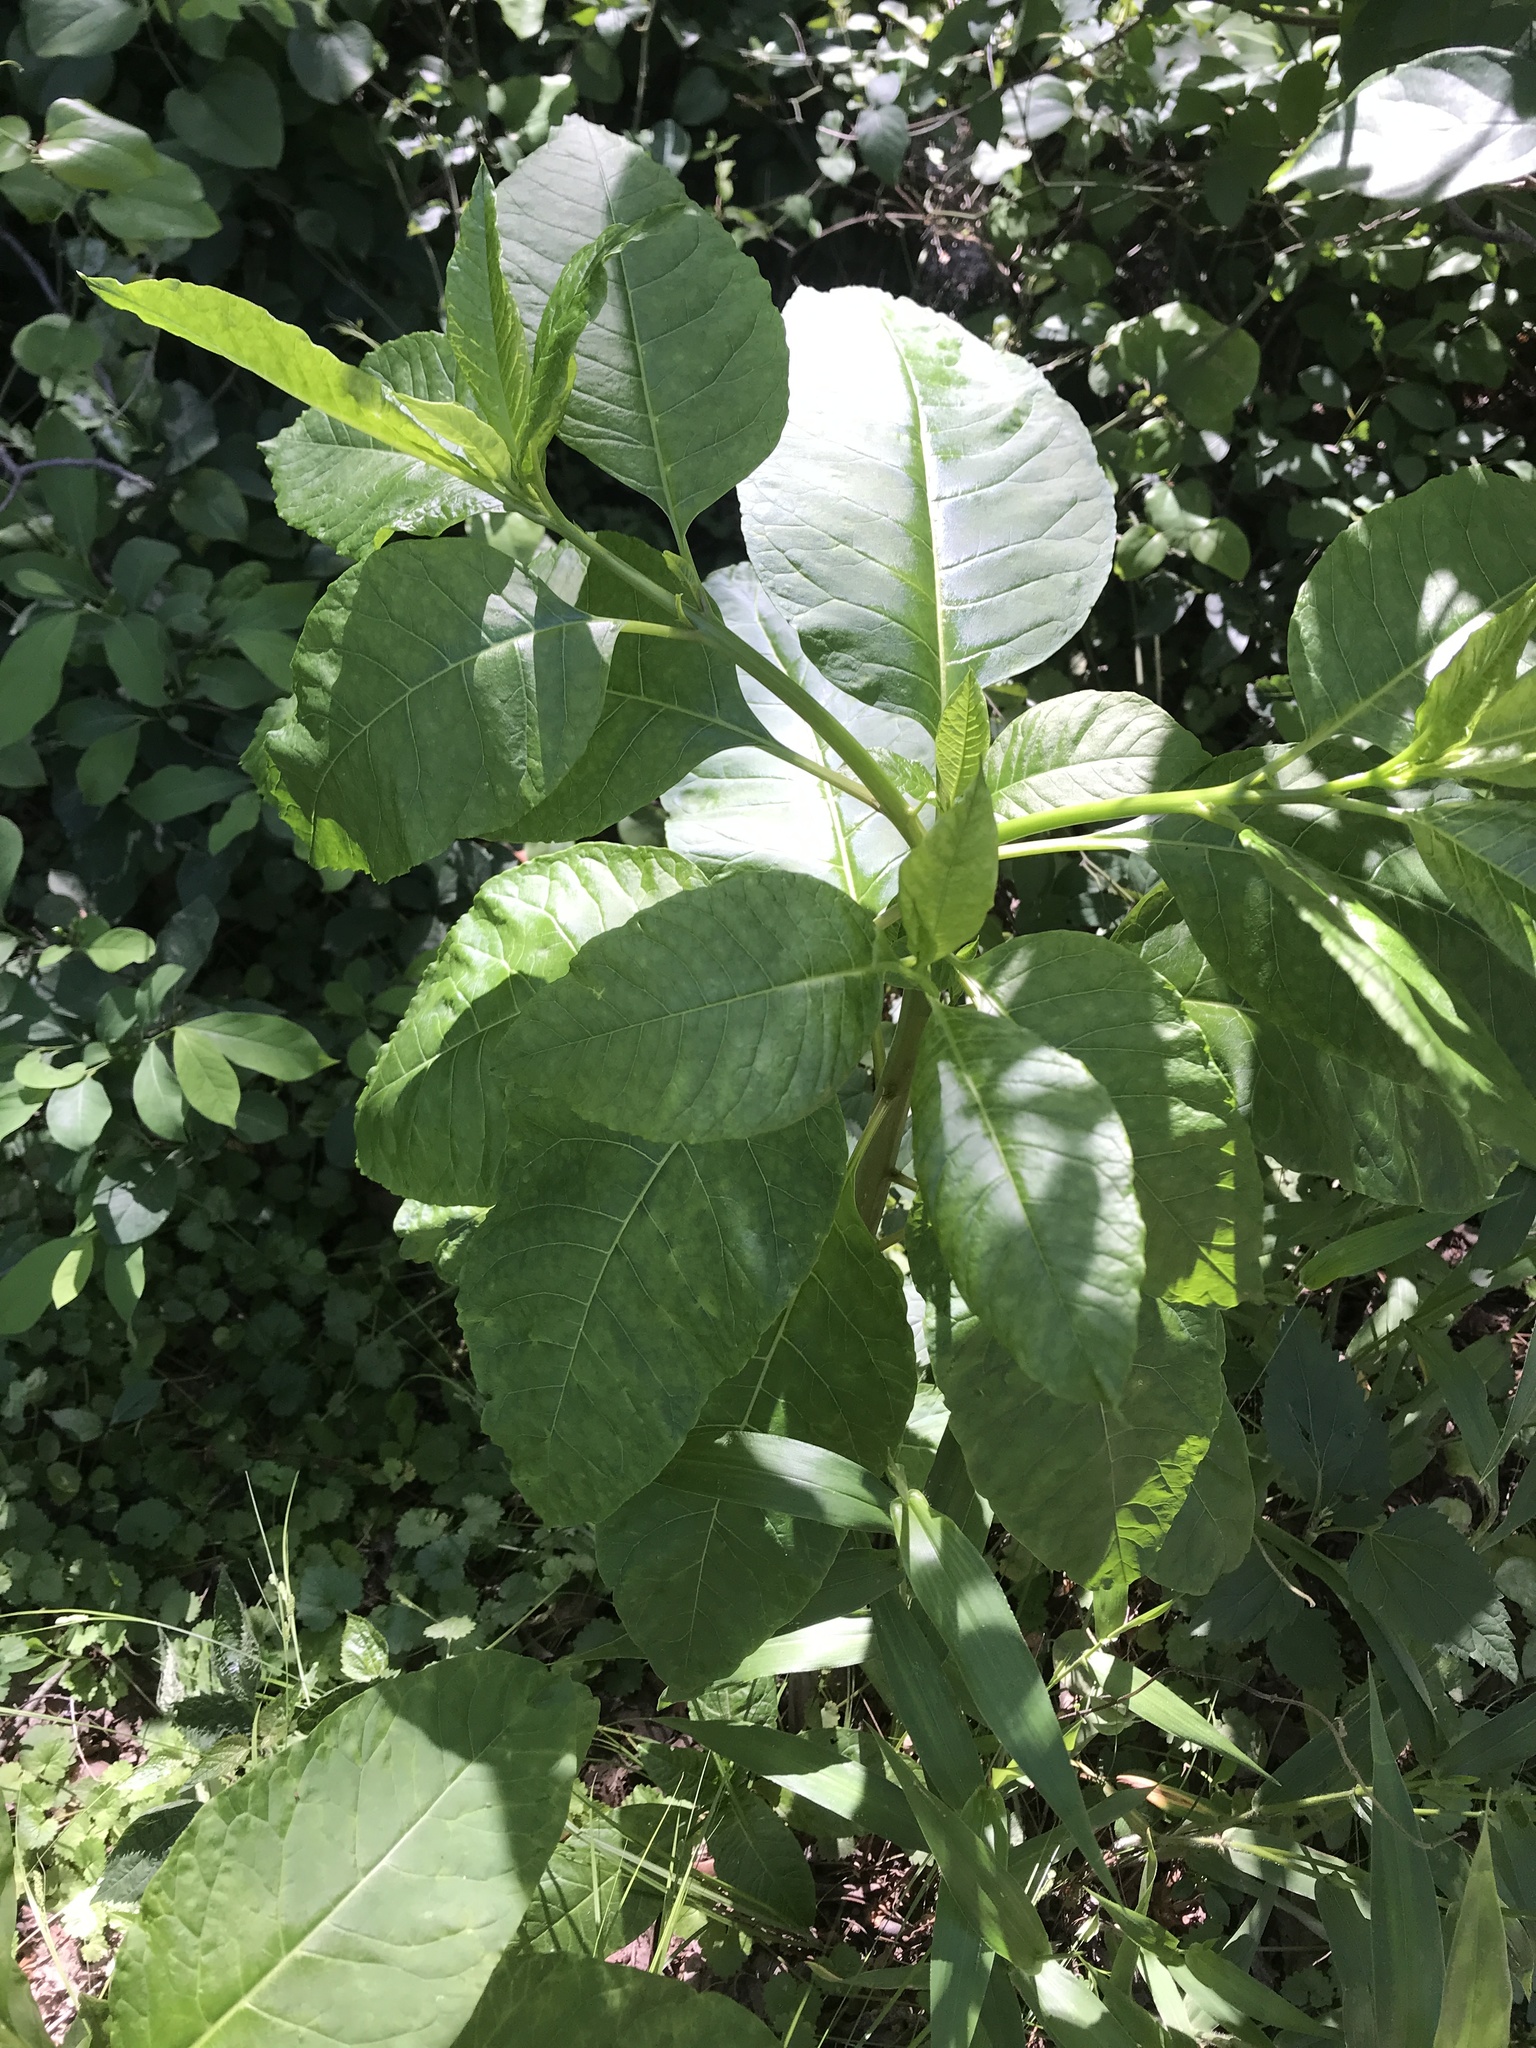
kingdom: Plantae
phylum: Tracheophyta
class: Magnoliopsida
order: Caryophyllales
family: Phytolaccaceae
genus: Phytolacca
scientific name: Phytolacca americana
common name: American pokeweed
